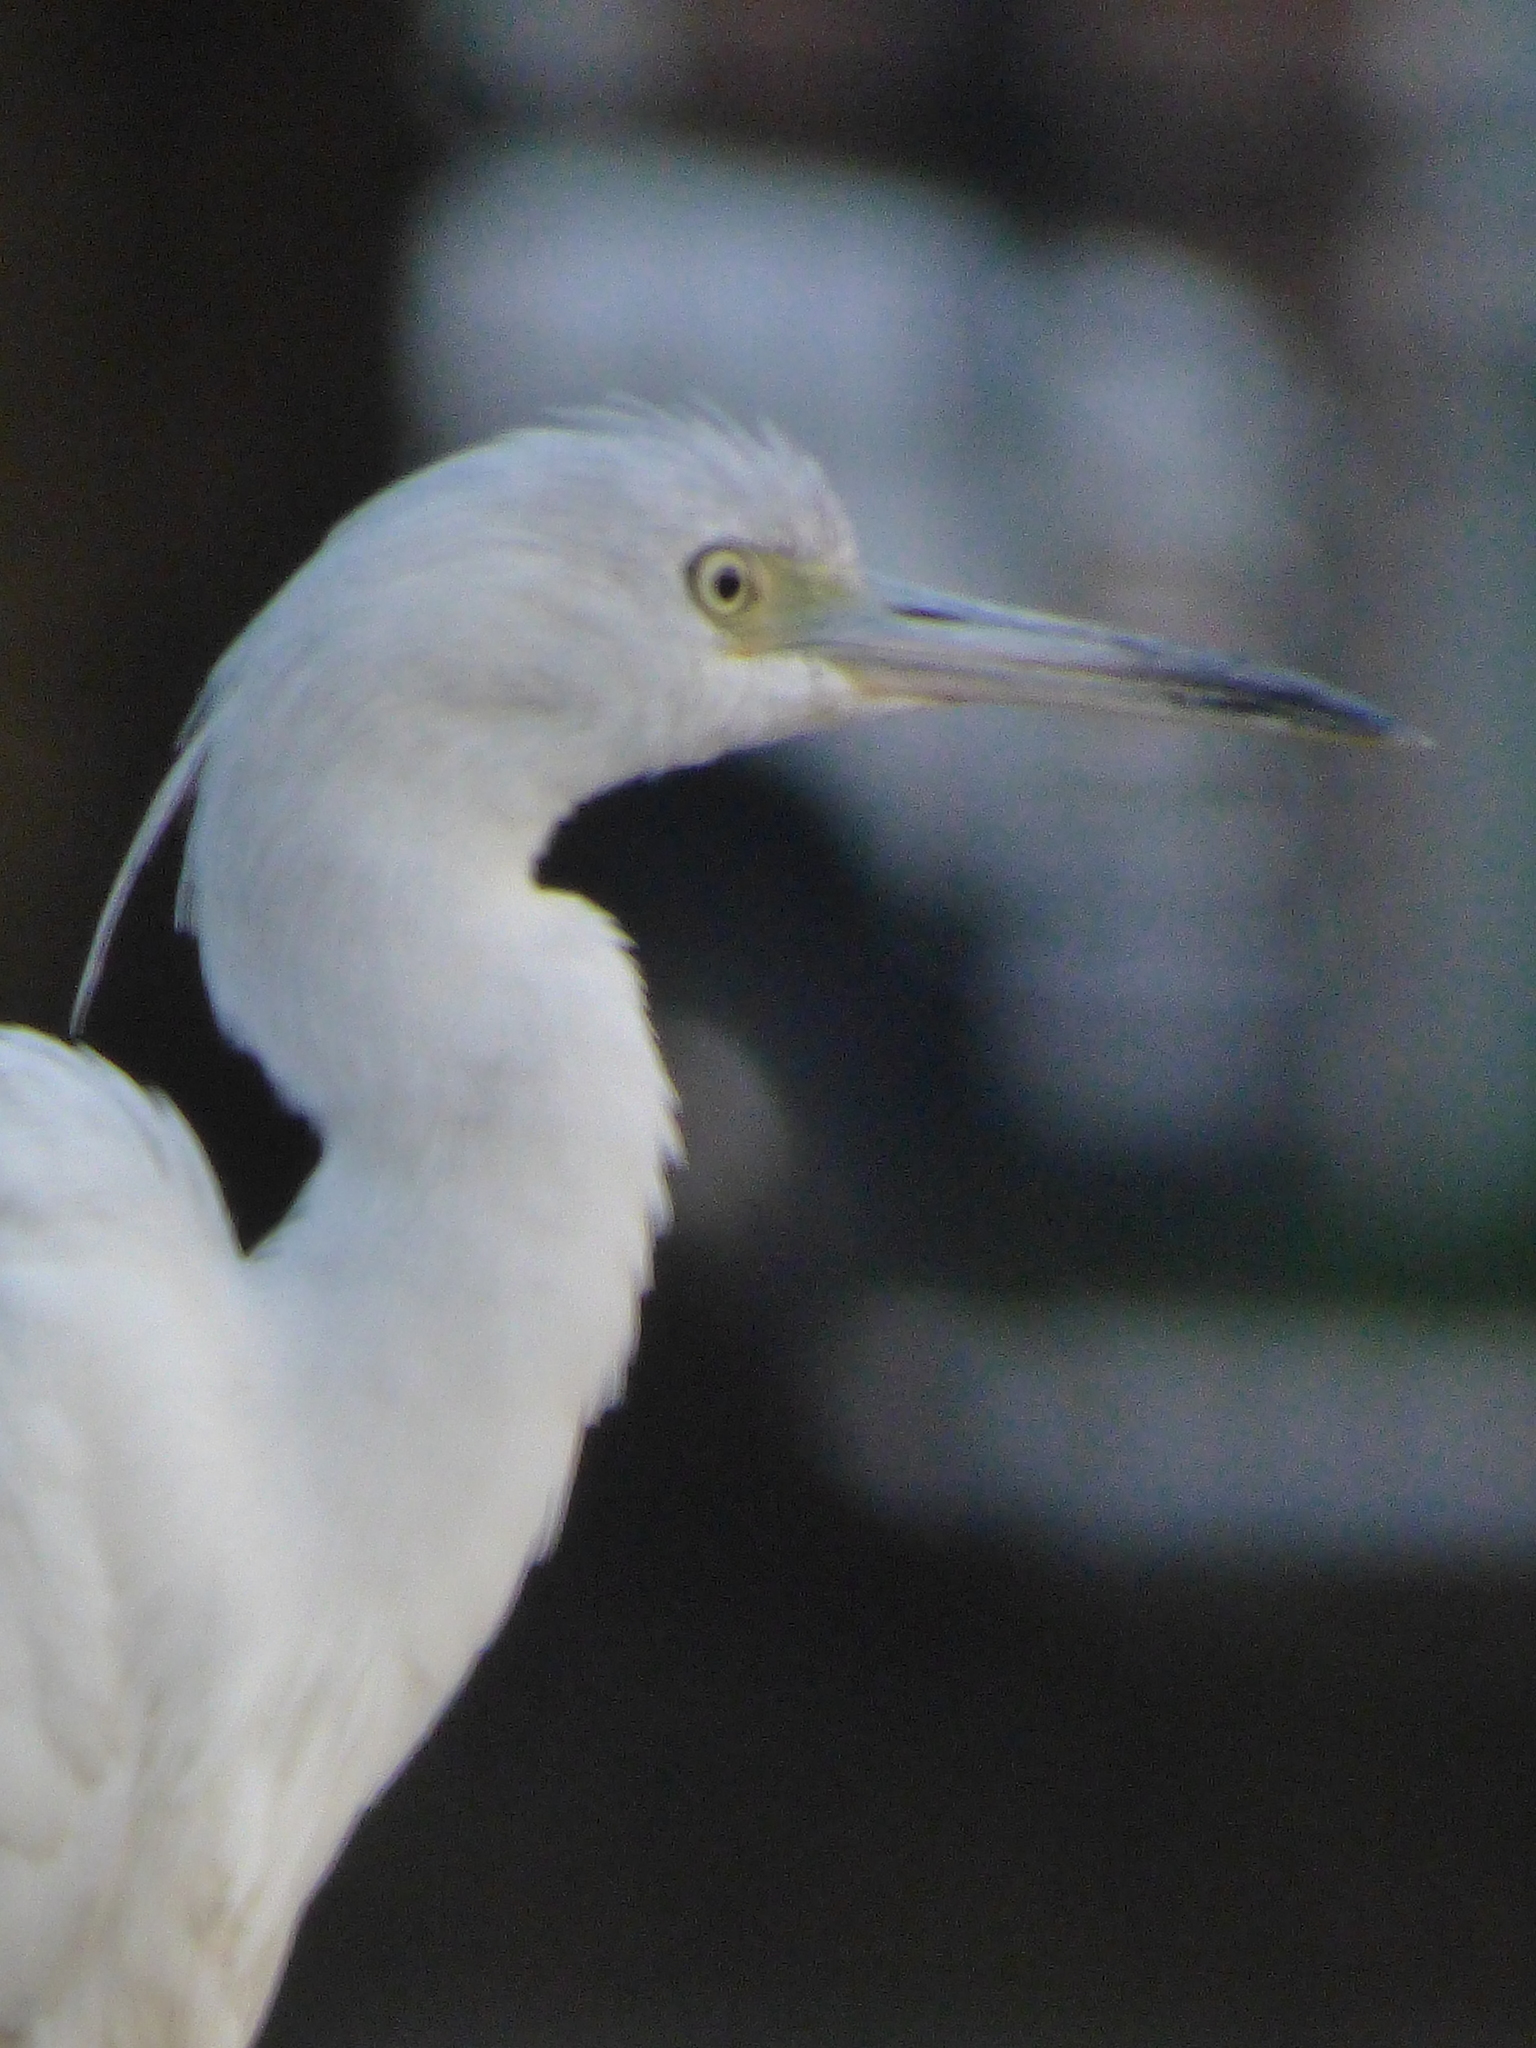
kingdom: Animalia
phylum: Chordata
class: Aves
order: Pelecaniformes
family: Ardeidae
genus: Egretta
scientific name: Egretta caerulea
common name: Little blue heron
